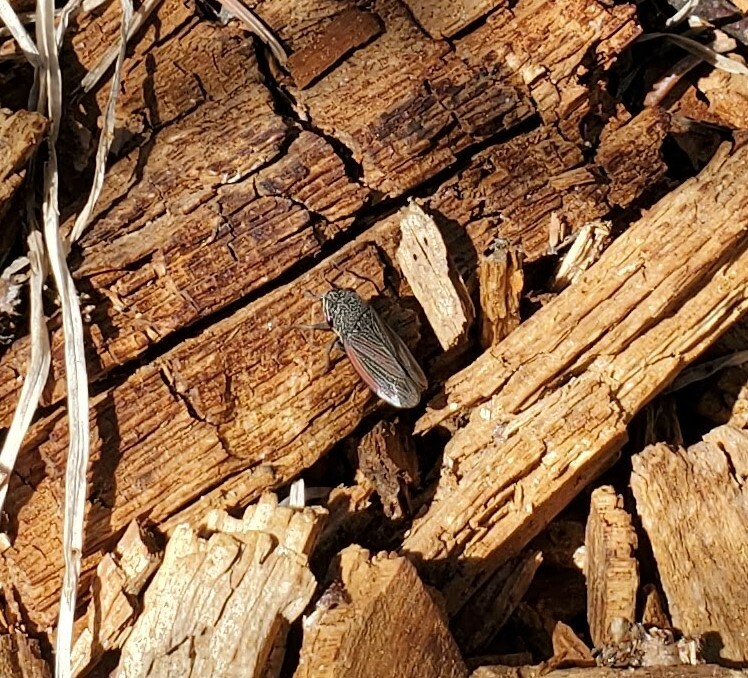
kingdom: Animalia
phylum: Arthropoda
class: Insecta
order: Hemiptera
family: Cicadellidae
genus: Cuerna
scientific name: Cuerna striata
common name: Striped leafhopper
